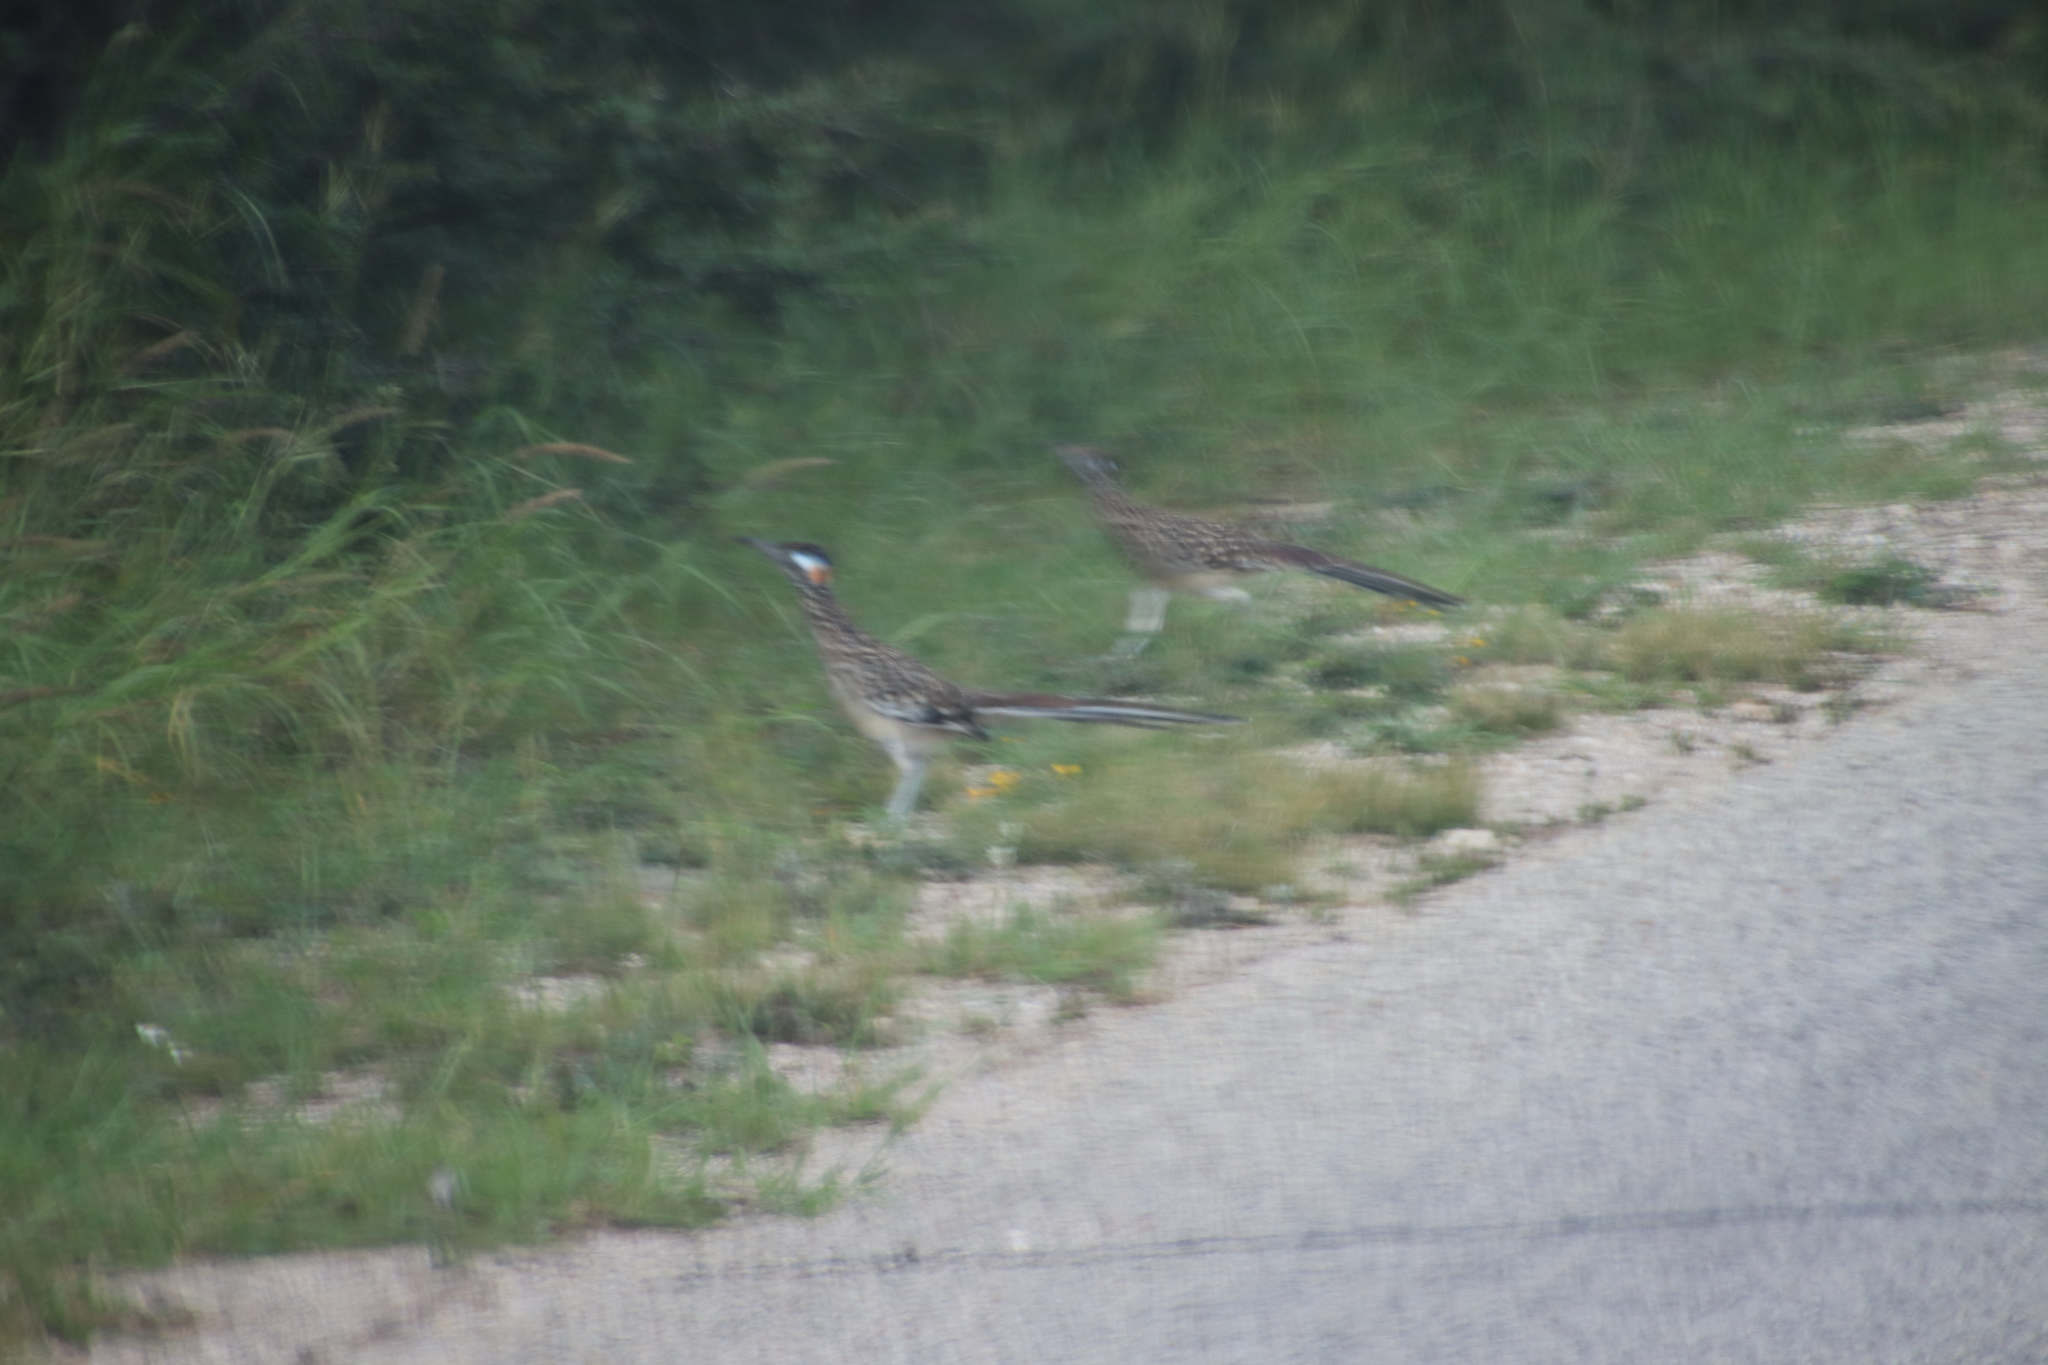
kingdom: Animalia
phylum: Chordata
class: Aves
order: Cuculiformes
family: Cuculidae
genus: Geococcyx
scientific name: Geococcyx californianus
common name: Greater roadrunner
